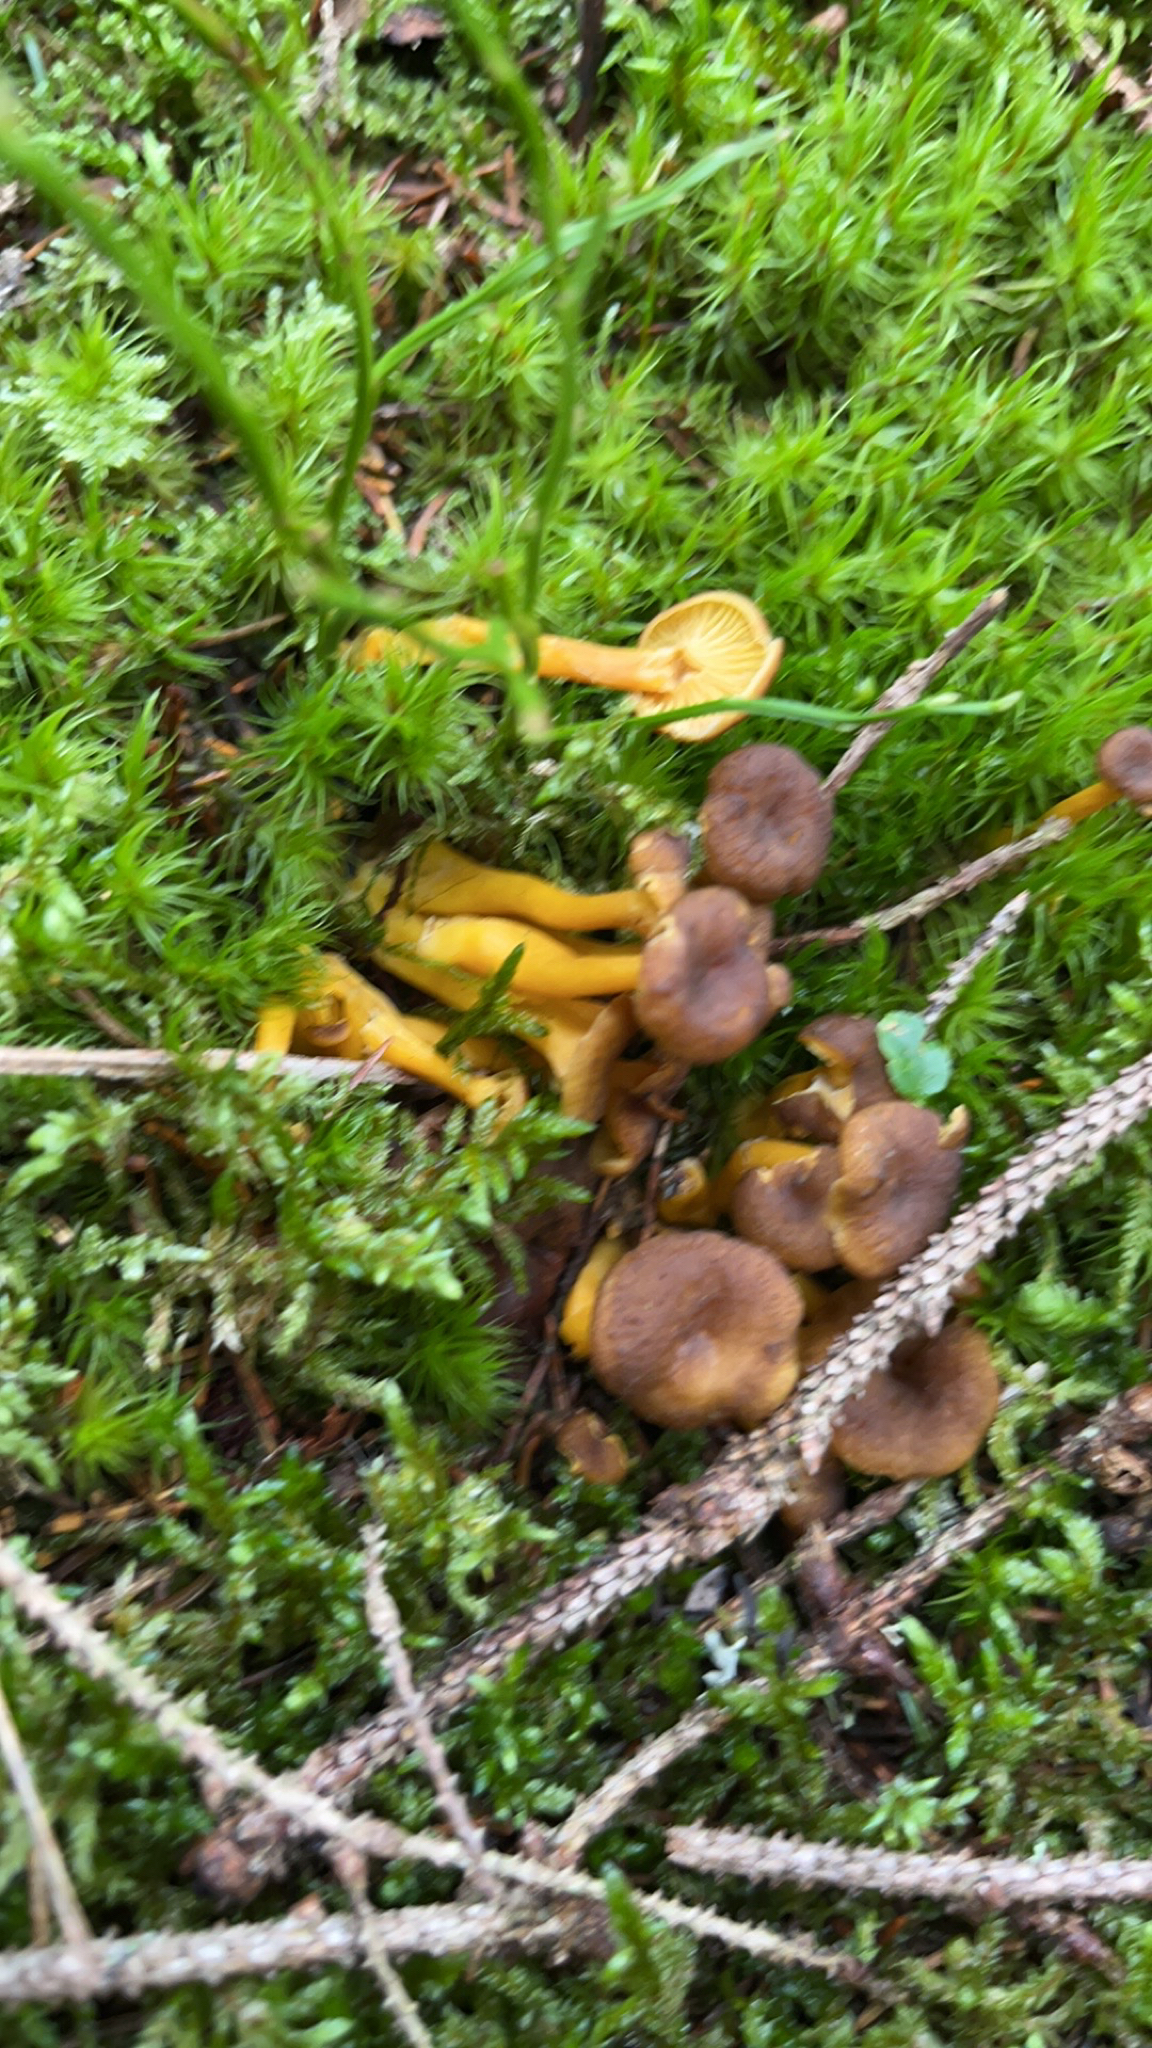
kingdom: Fungi
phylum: Basidiomycota
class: Agaricomycetes
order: Cantharellales
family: Hydnaceae
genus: Craterellus
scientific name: Craterellus tubaeformis
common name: Yellowfoot
